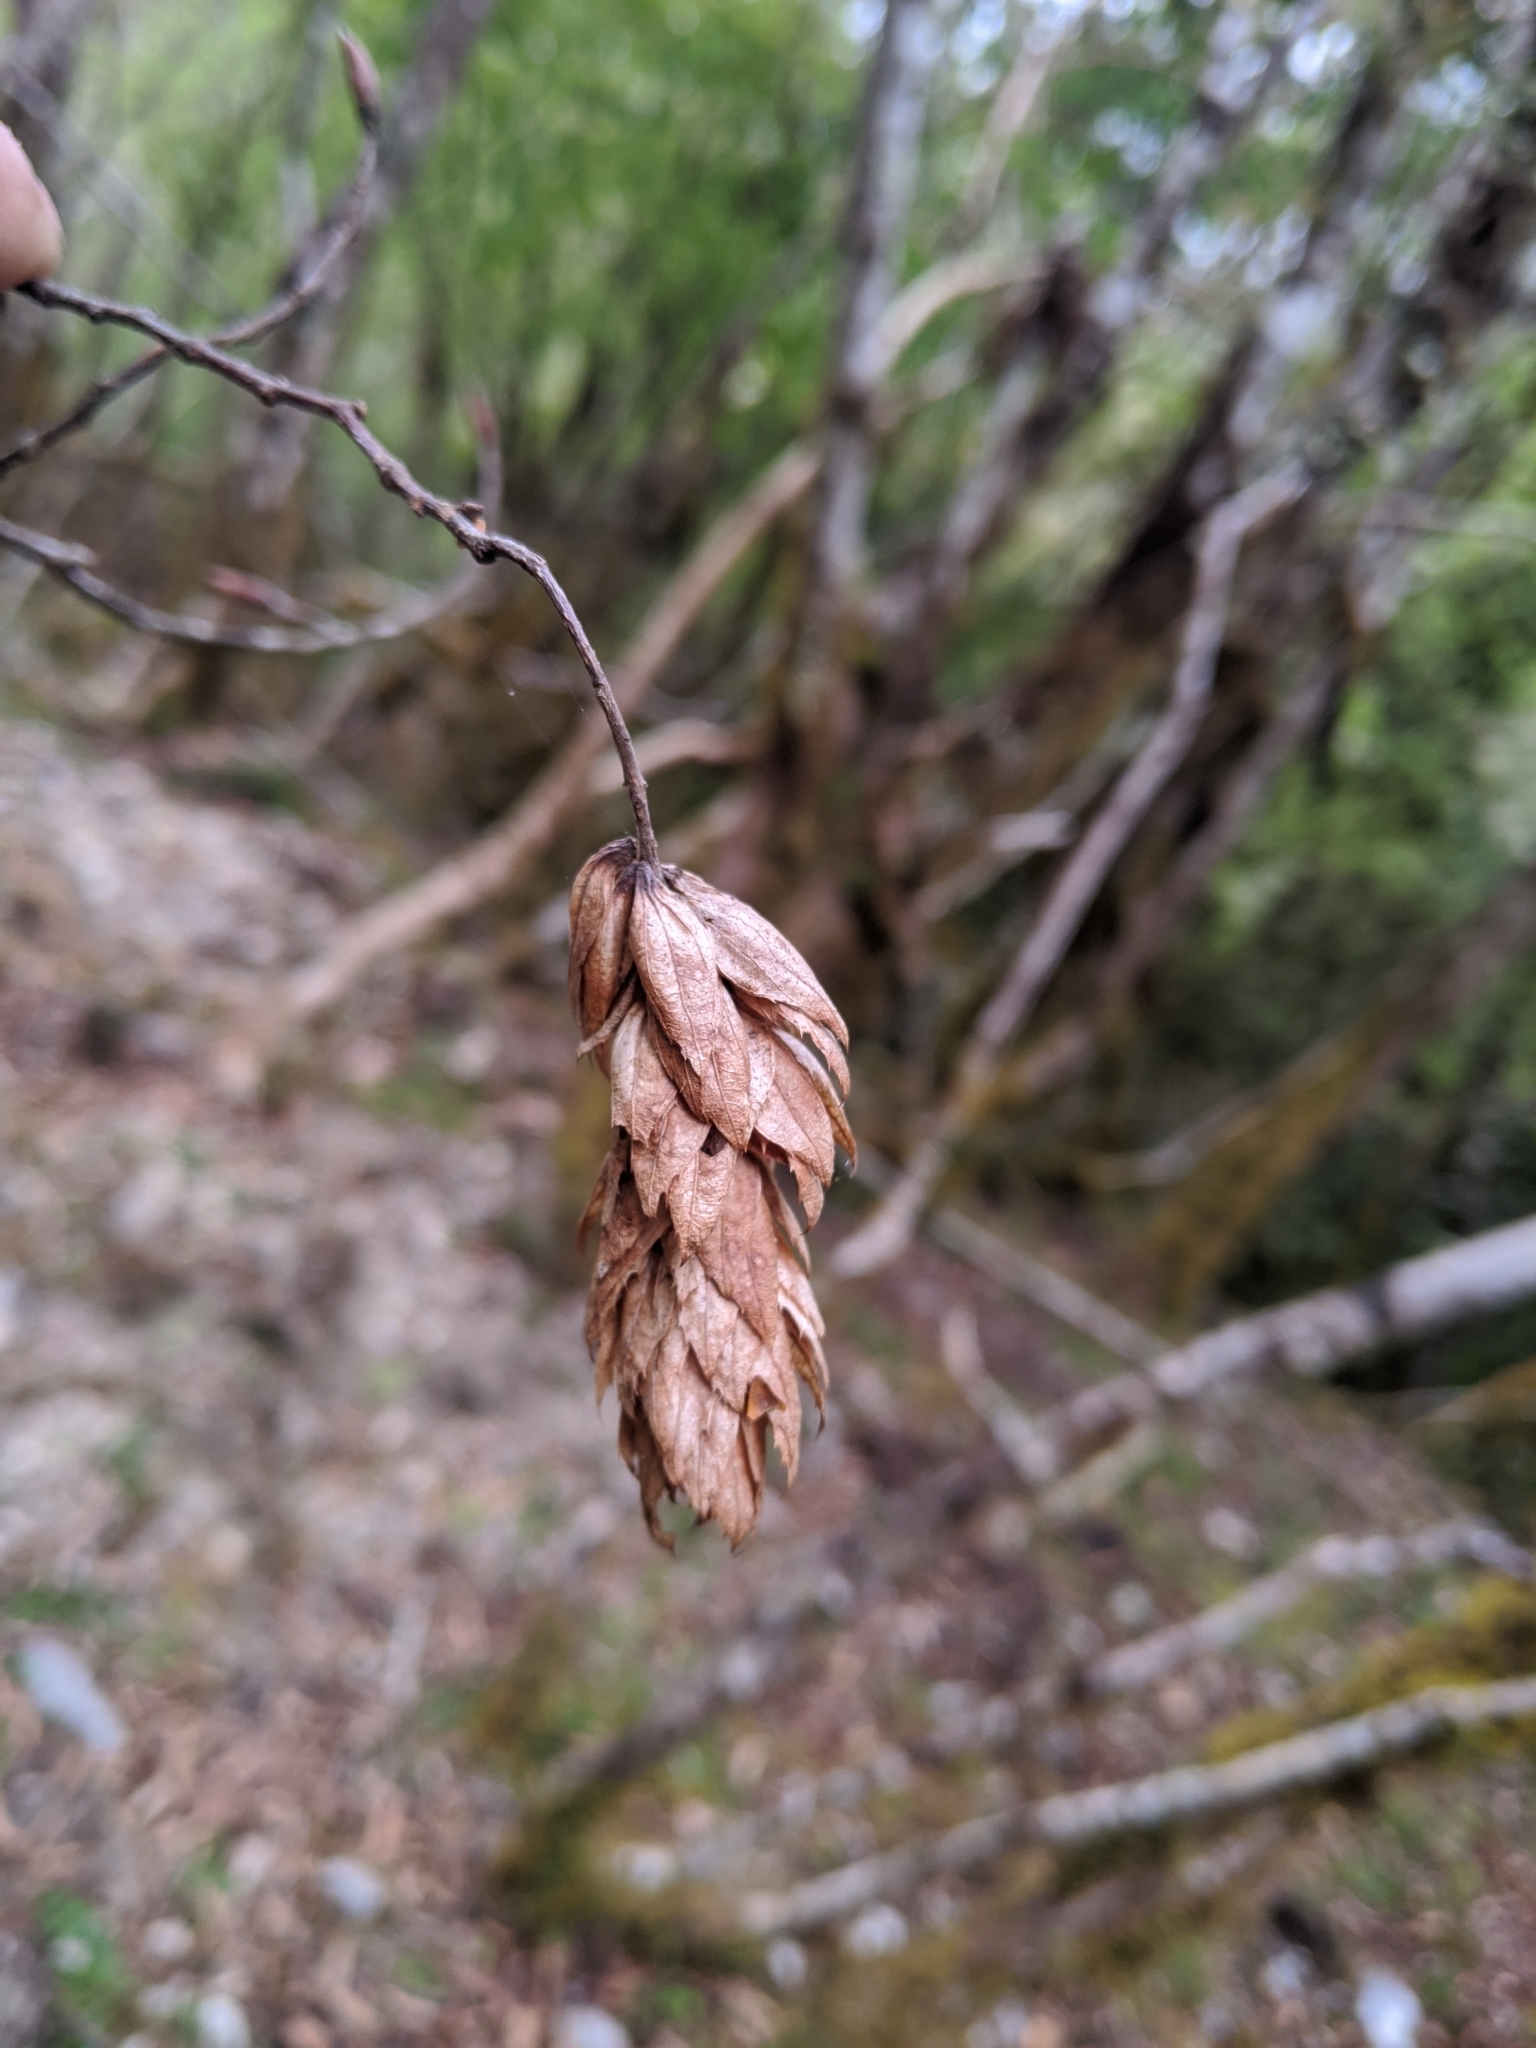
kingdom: Plantae
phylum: Tracheophyta
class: Magnoliopsida
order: Fagales
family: Betulaceae
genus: Carpinus
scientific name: Carpinus rankanensis
